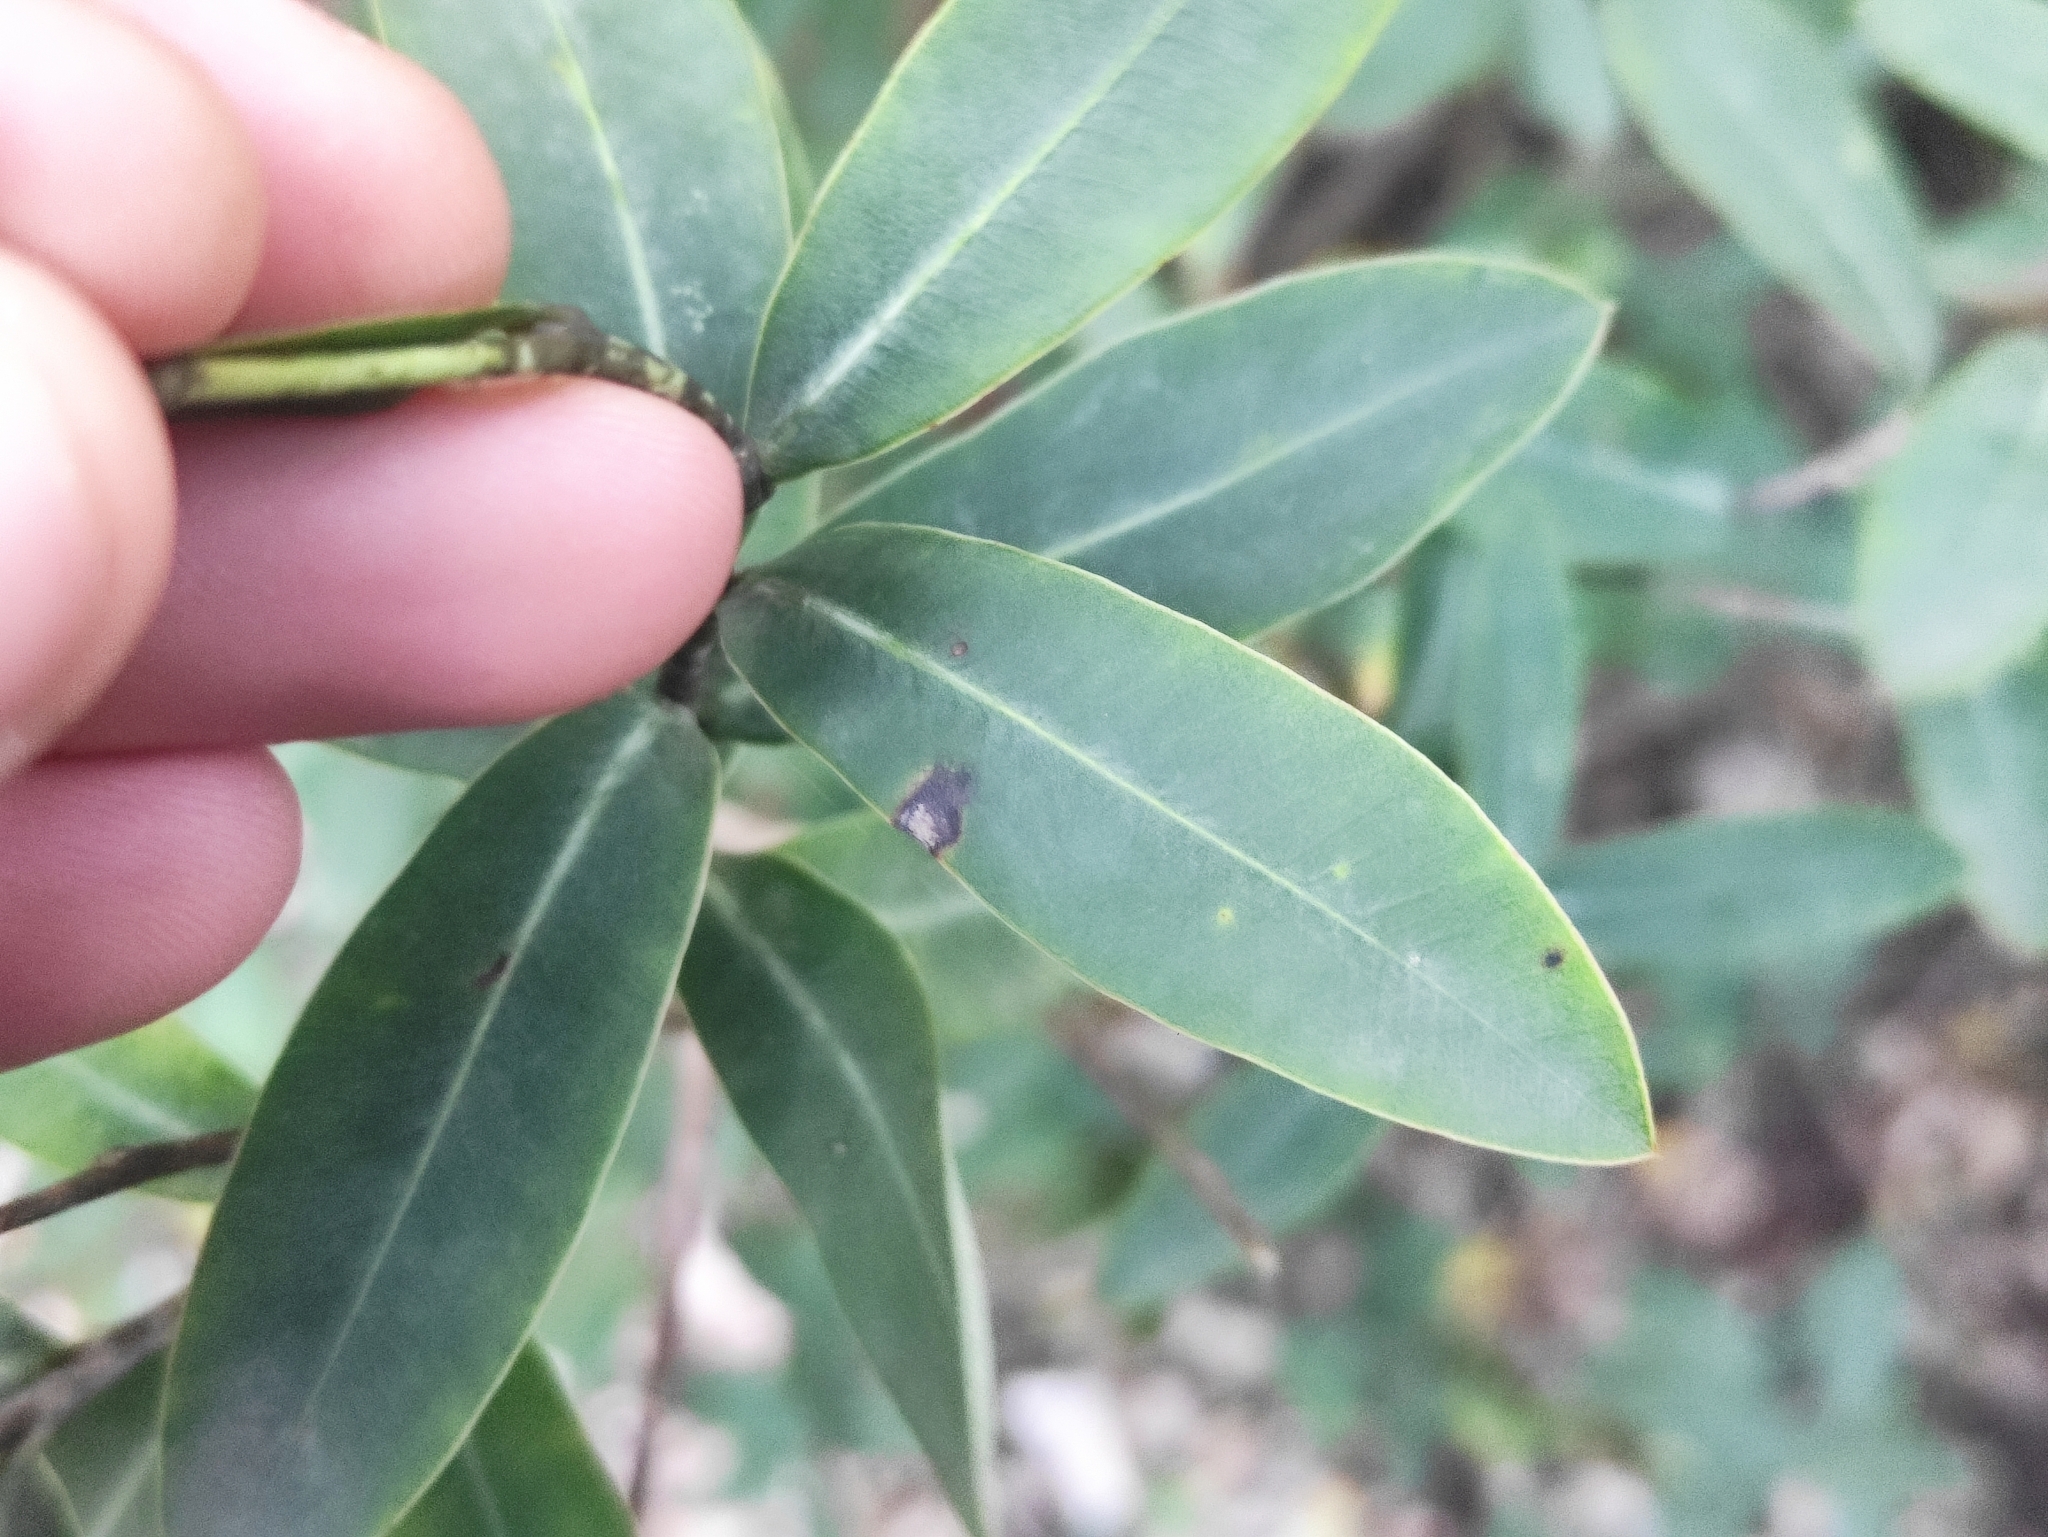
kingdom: Plantae
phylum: Tracheophyta
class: Magnoliopsida
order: Apiales
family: Apiaceae
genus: Bupleurum
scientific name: Bupleurum fruticosum
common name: Shrubby hare's-ear
